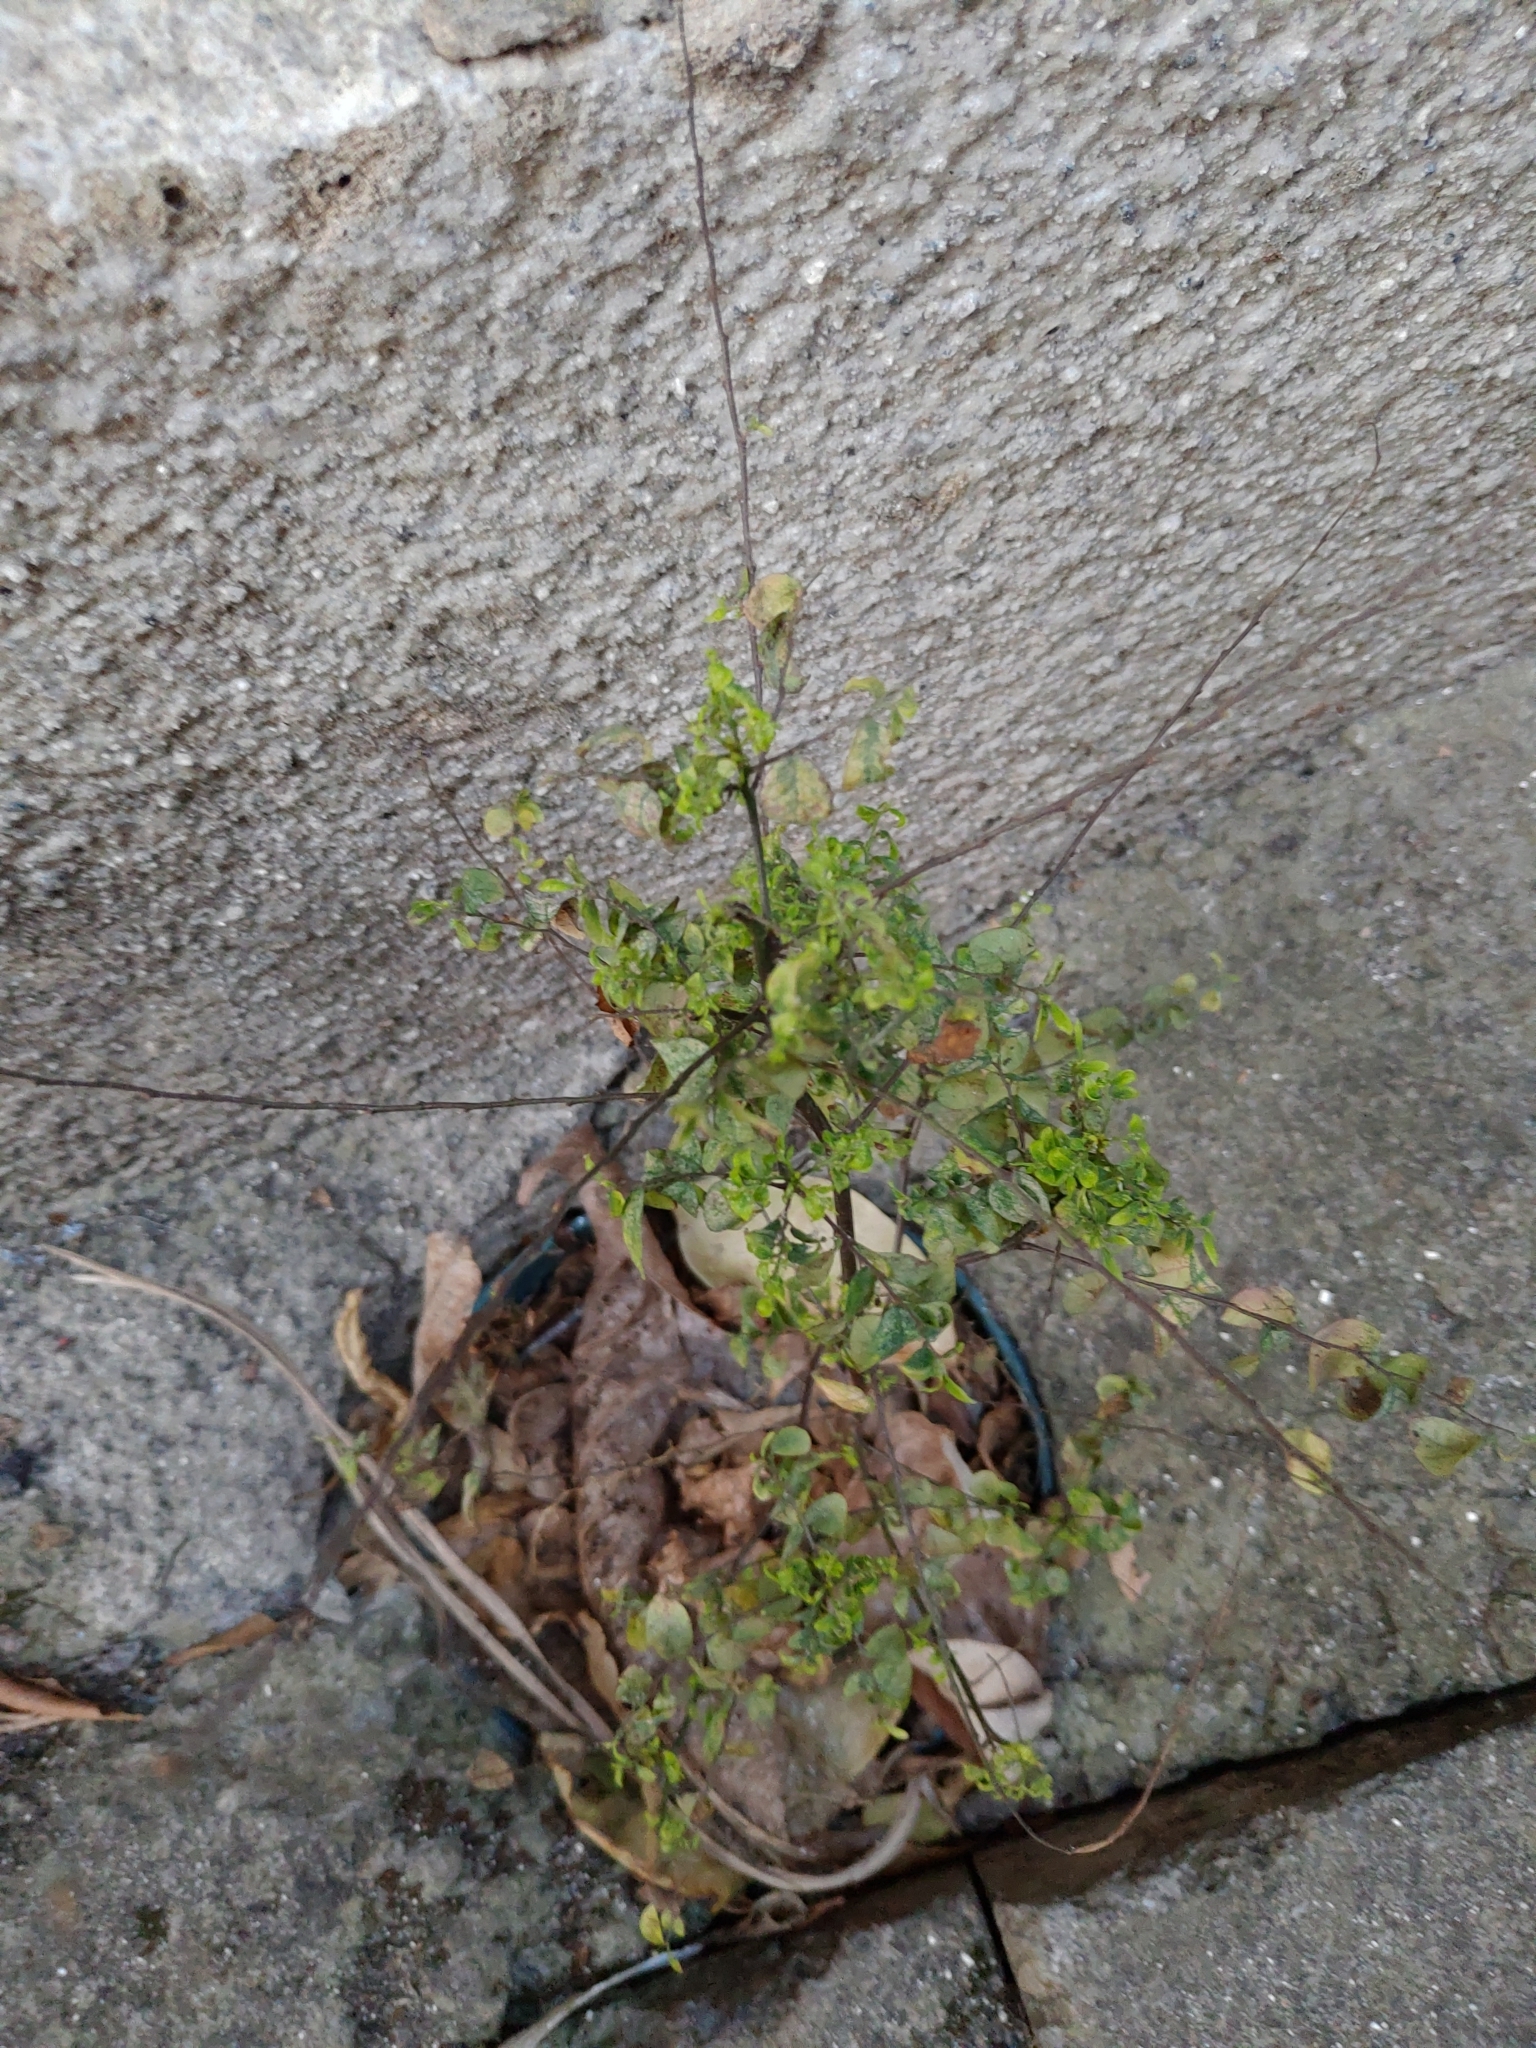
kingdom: Plantae
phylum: Tracheophyta
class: Magnoliopsida
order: Malpighiales
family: Phyllanthaceae
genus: Phyllanthus
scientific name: Phyllanthus tenellus
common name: Mascarene island leaf-flower
